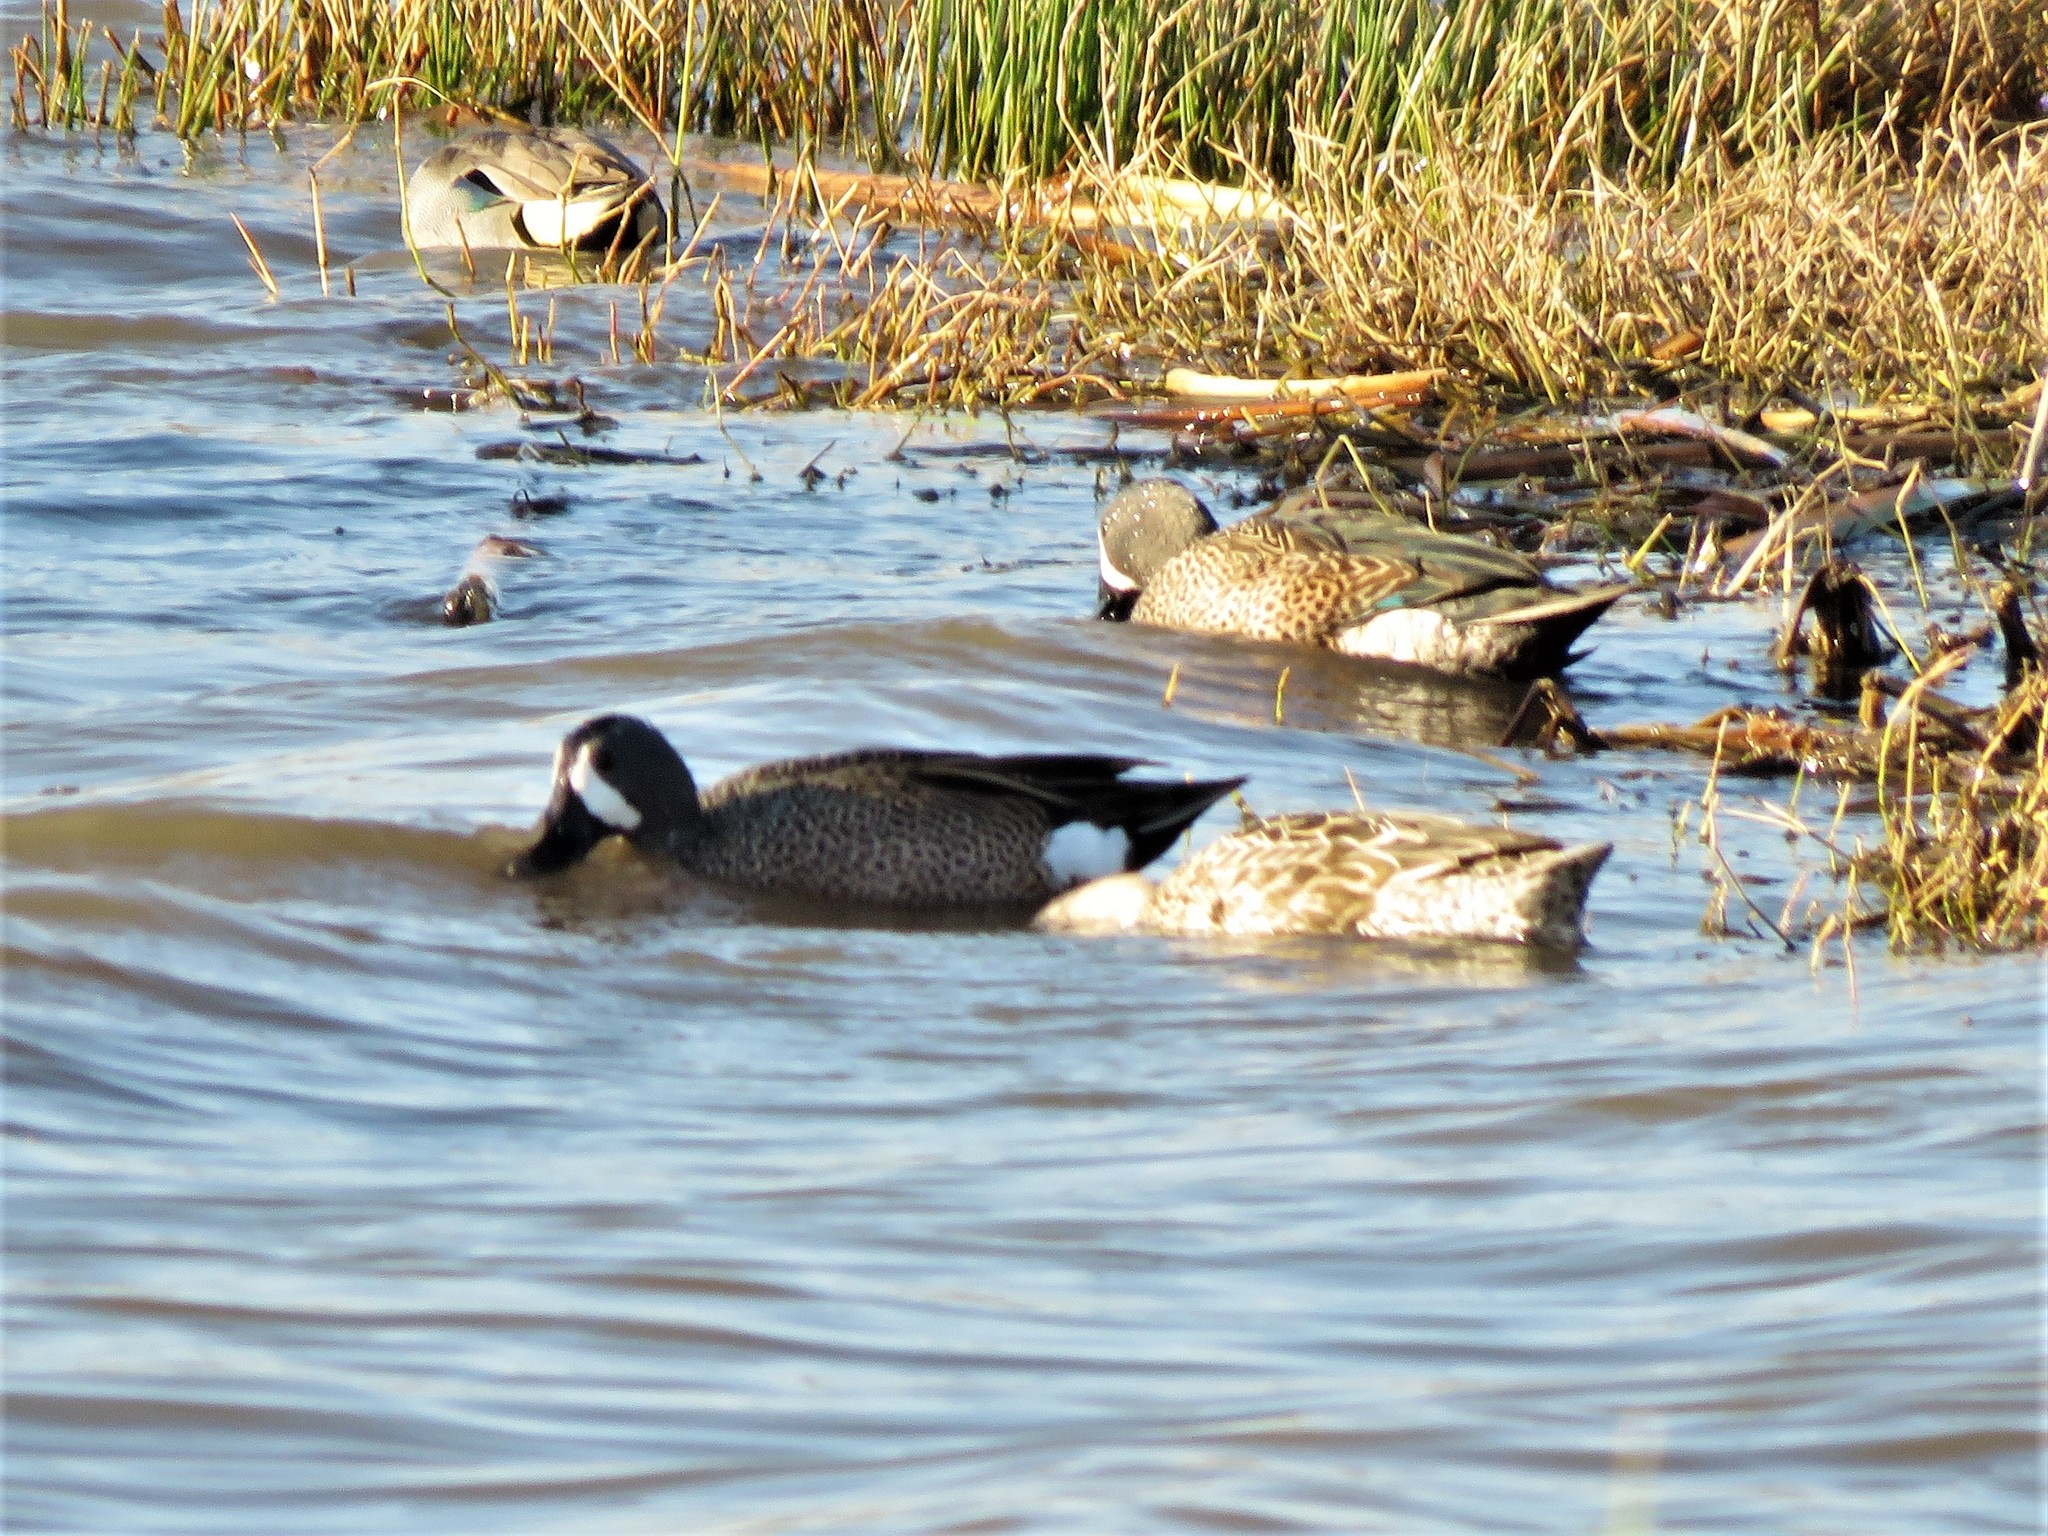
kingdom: Animalia
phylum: Chordata
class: Aves
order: Anseriformes
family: Anatidae
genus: Spatula
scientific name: Spatula discors
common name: Blue-winged teal
